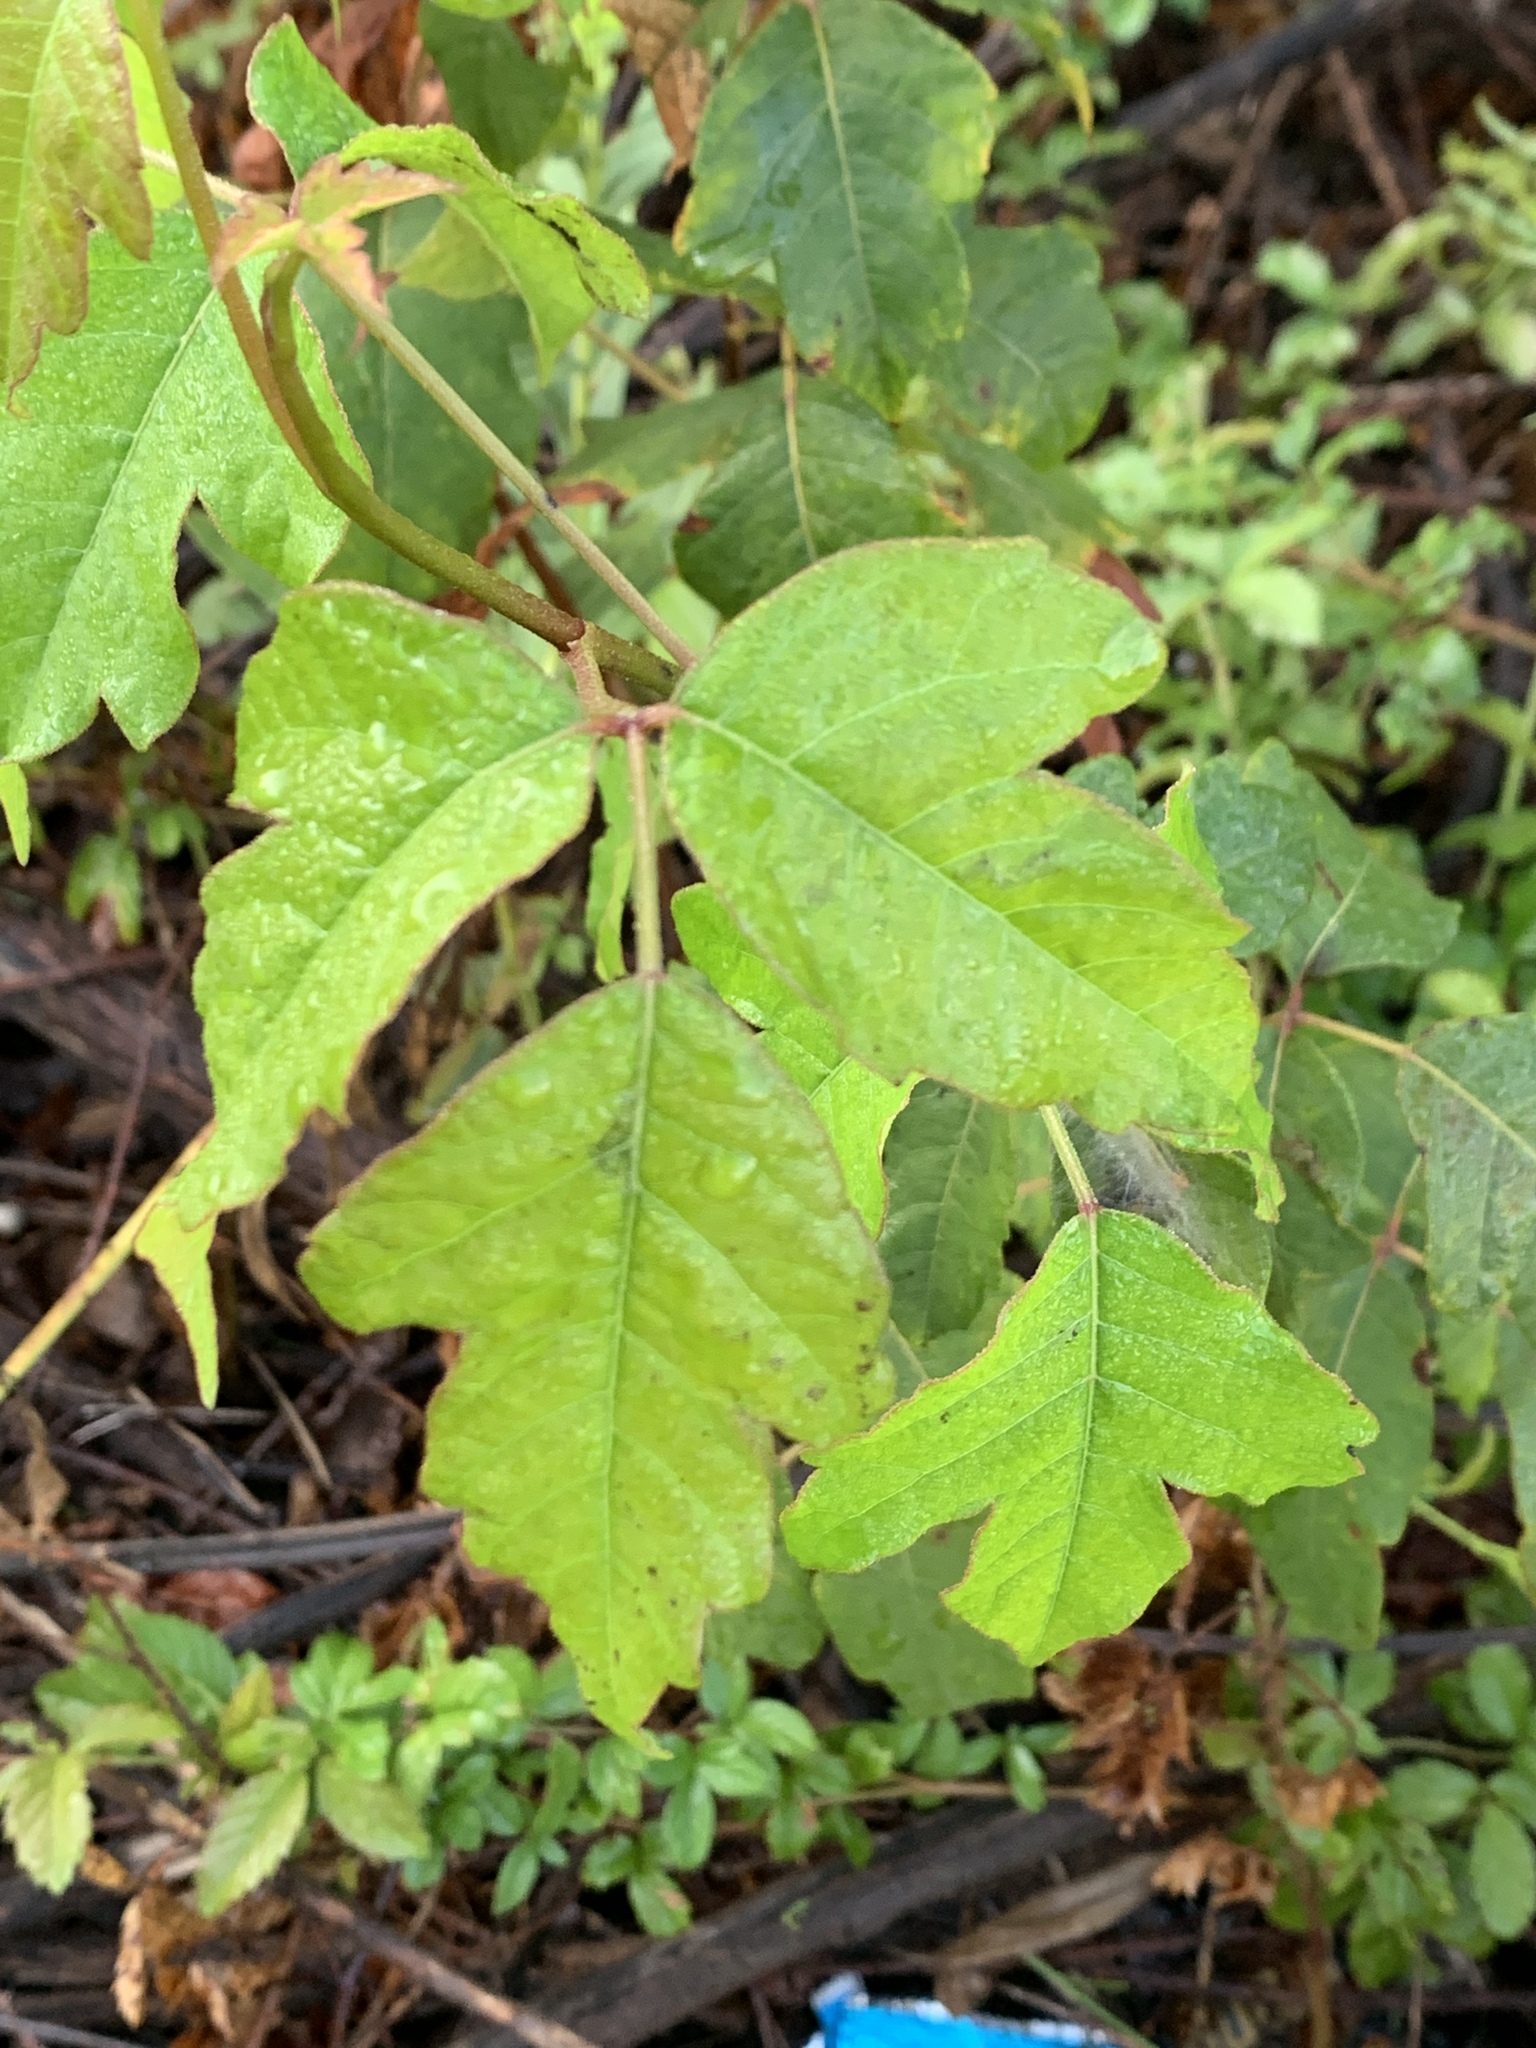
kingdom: Plantae
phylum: Tracheophyta
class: Magnoliopsida
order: Sapindales
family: Anacardiaceae
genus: Toxicodendron
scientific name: Toxicodendron radicans
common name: Poison ivy
